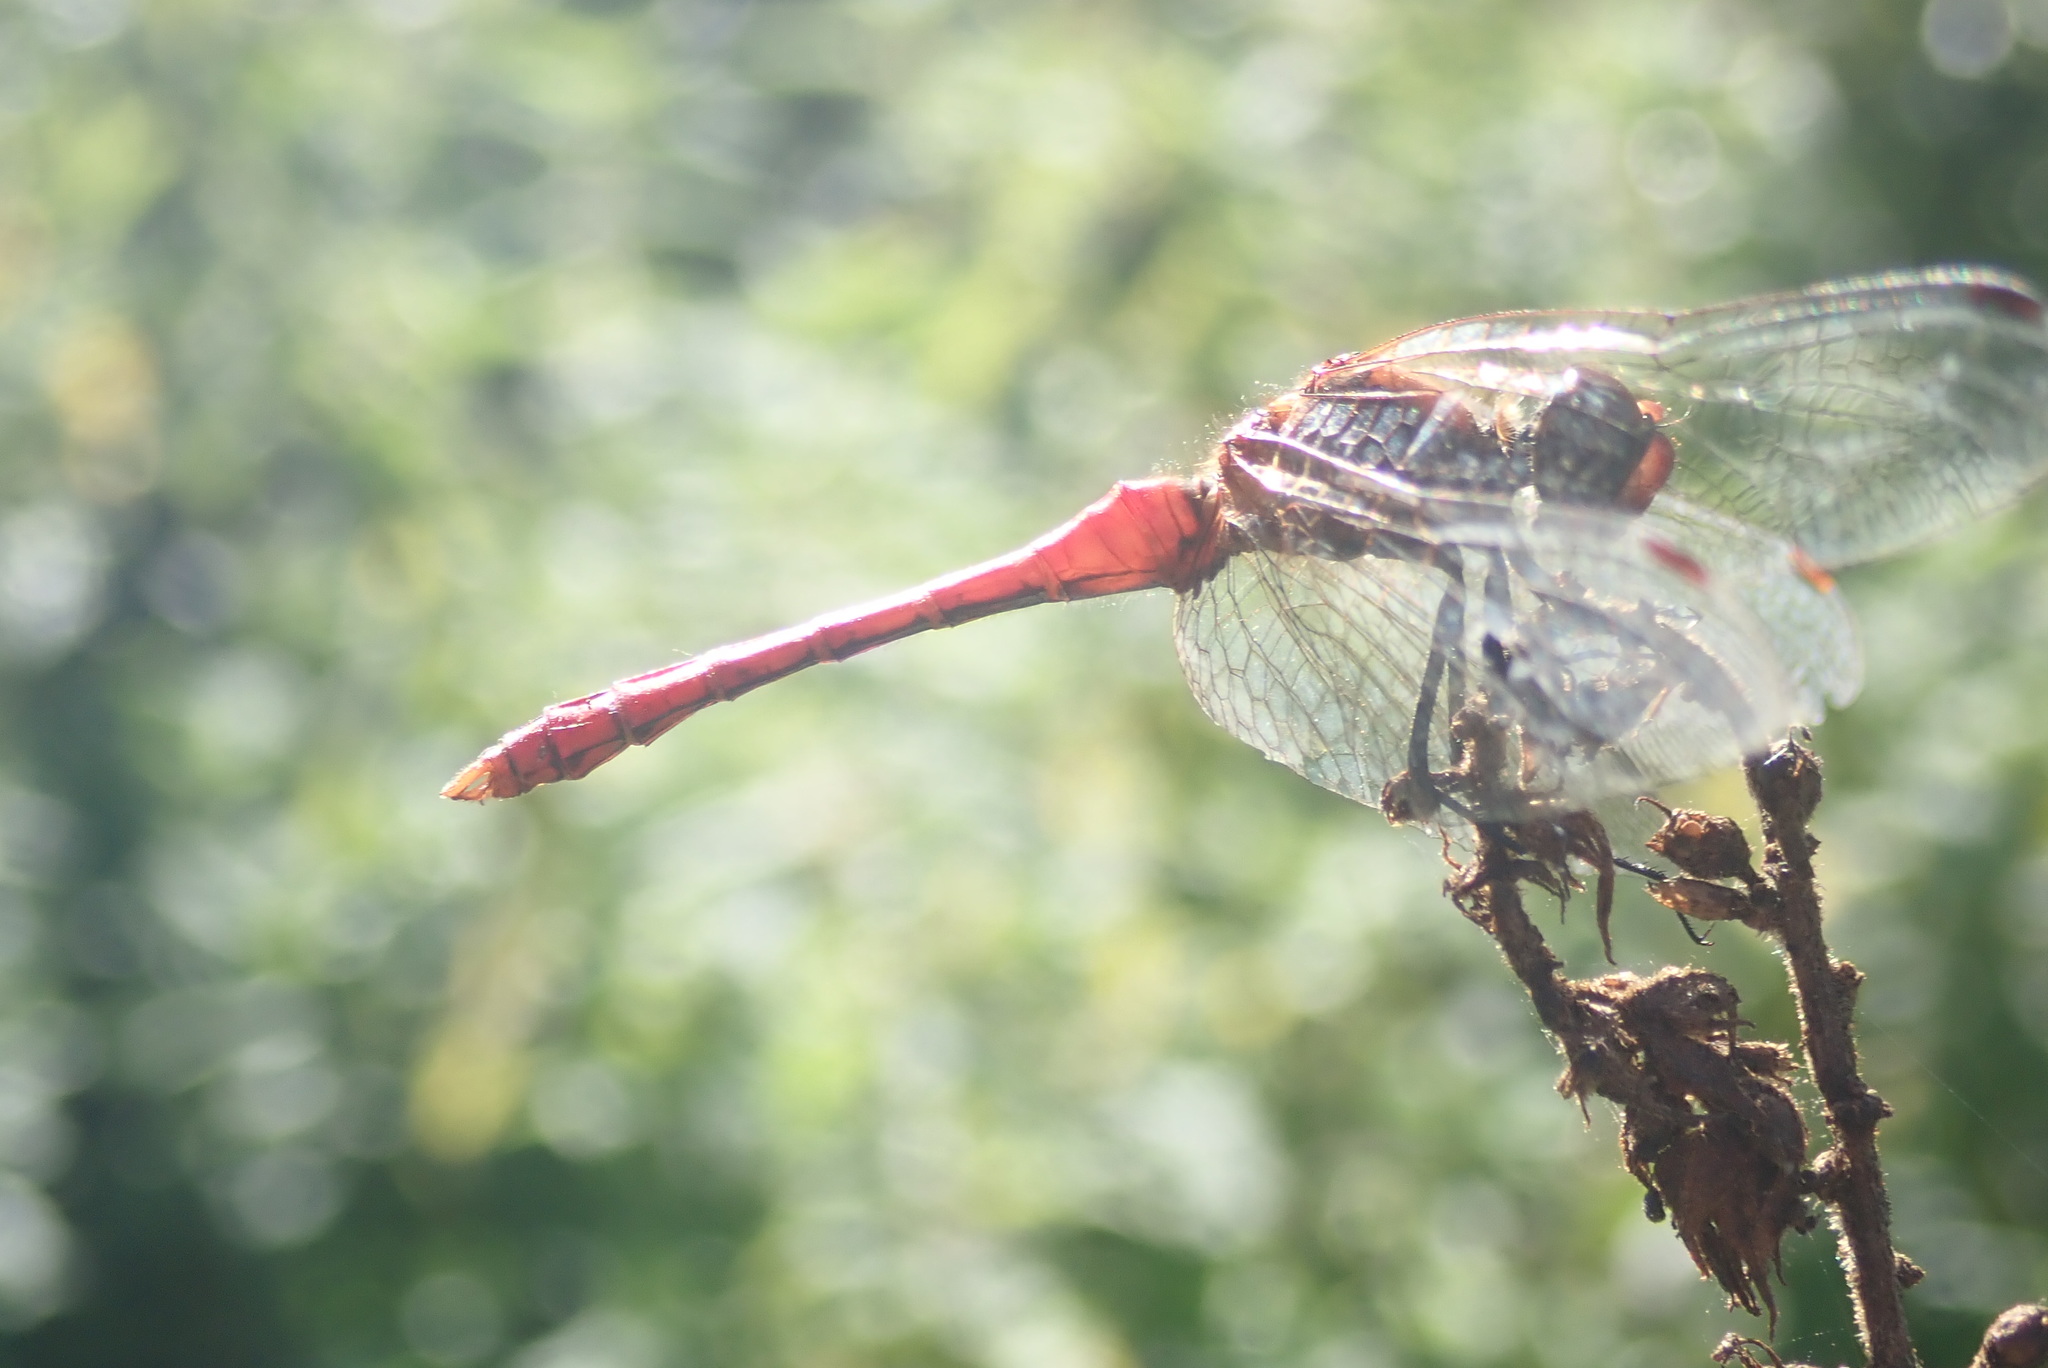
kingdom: Animalia
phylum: Arthropoda
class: Insecta
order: Odonata
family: Libellulidae
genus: Sympetrum
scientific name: Sympetrum sanguineum
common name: Ruddy darter
